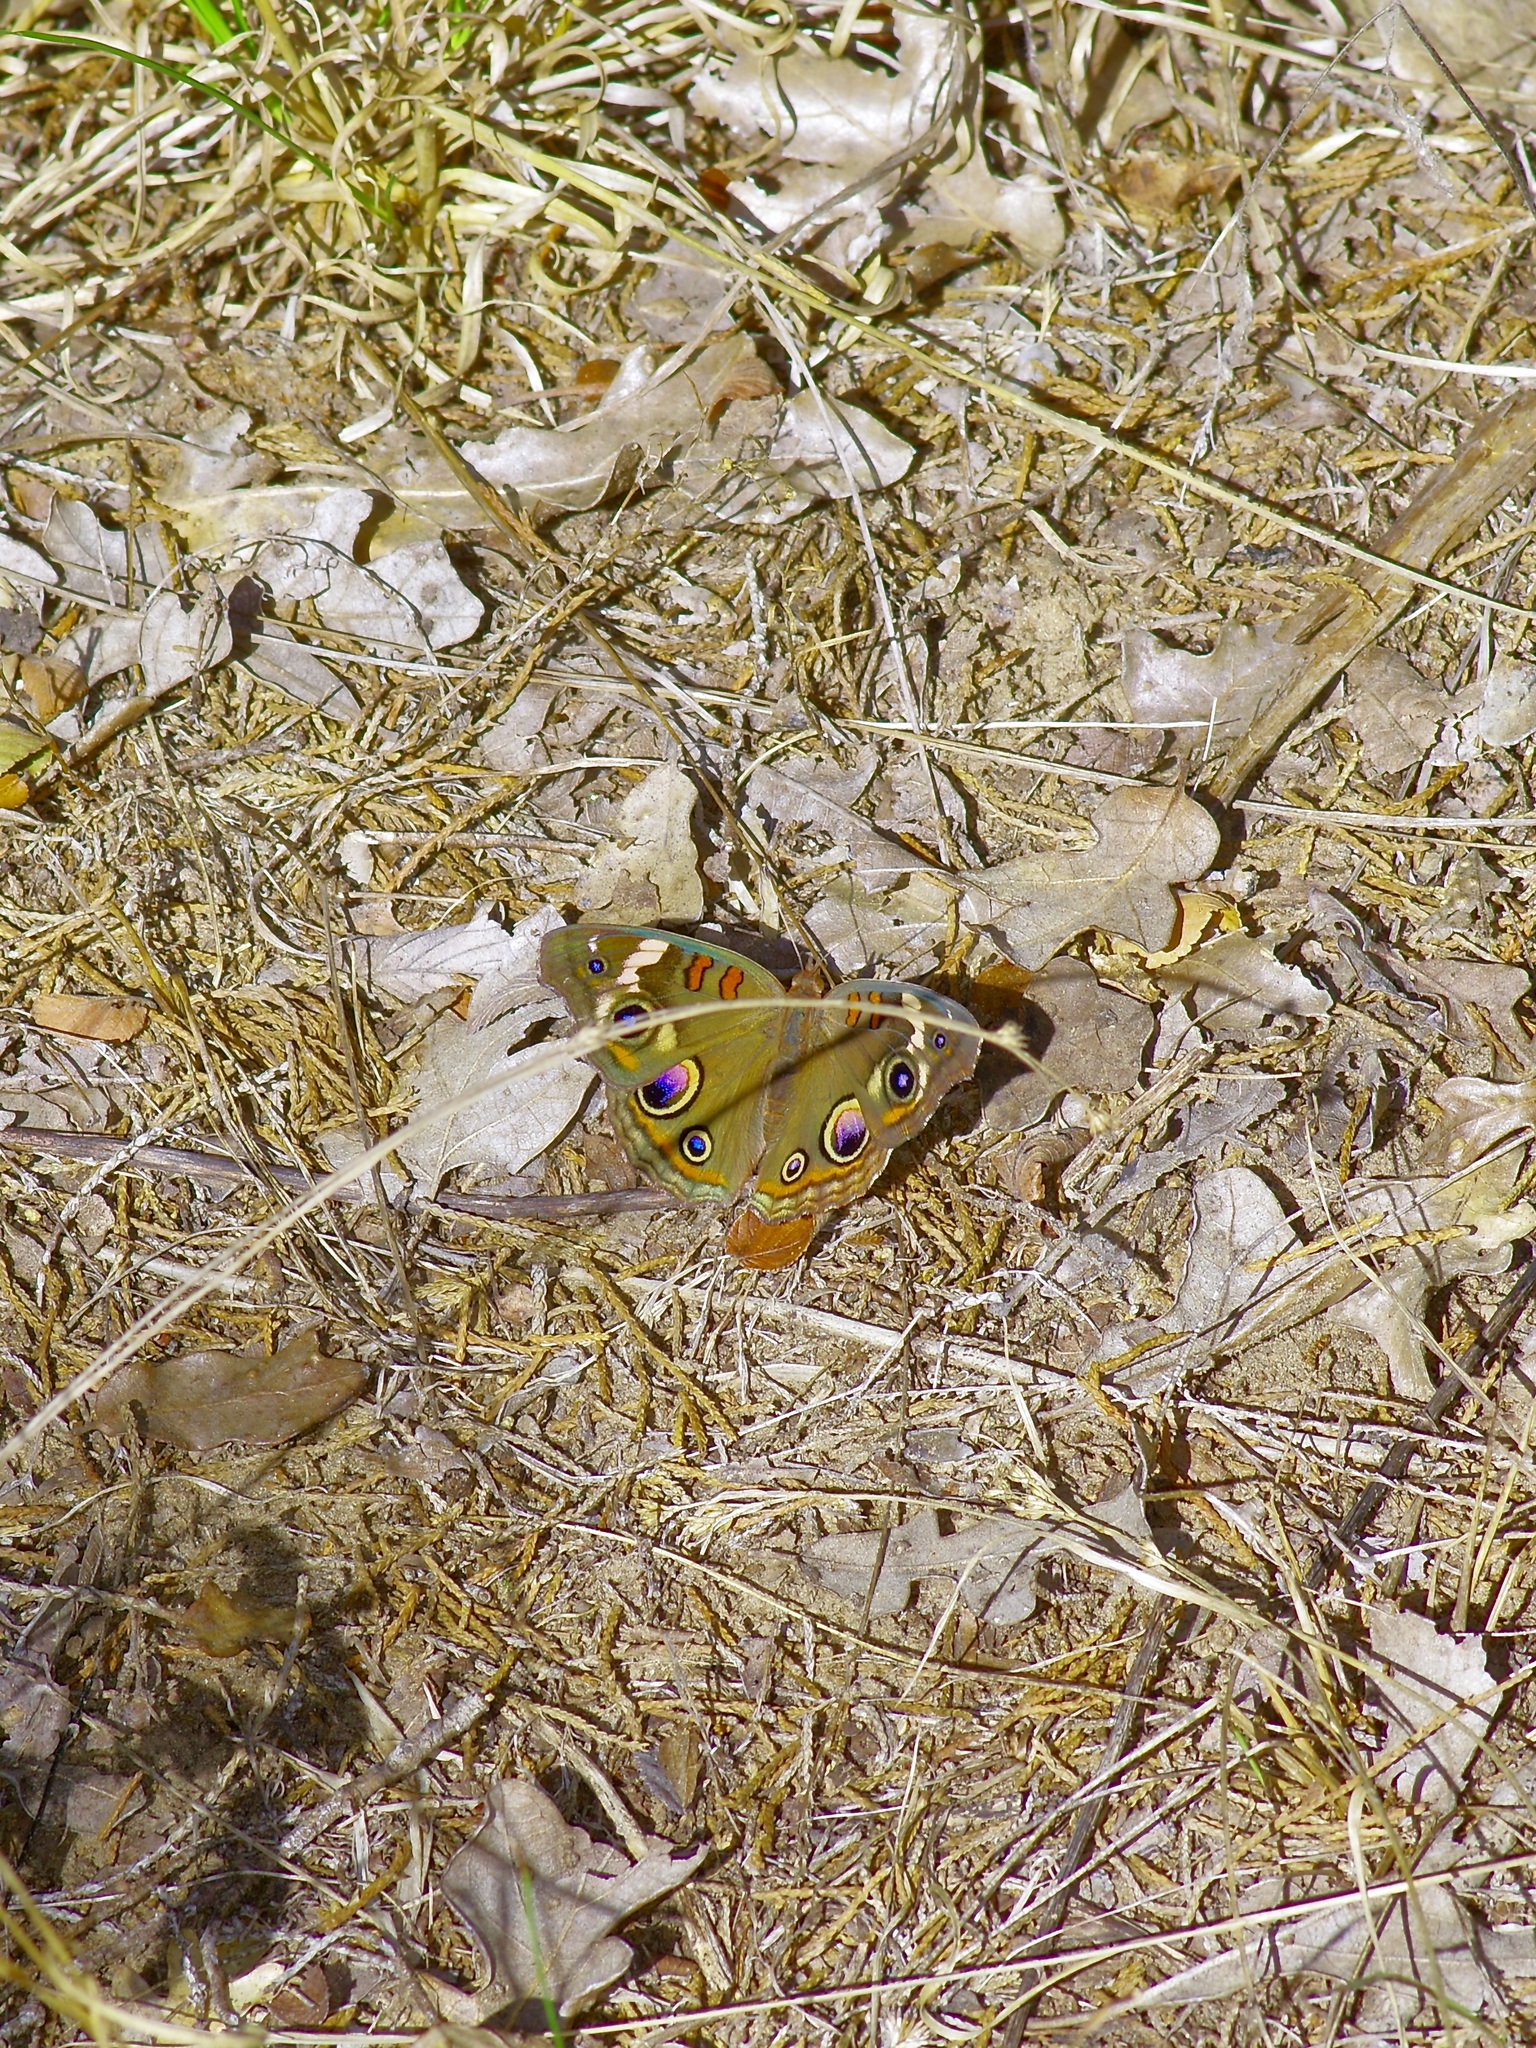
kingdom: Animalia
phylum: Arthropoda
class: Insecta
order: Lepidoptera
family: Nymphalidae
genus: Junonia
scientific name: Junonia coenia
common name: Common buckeye
